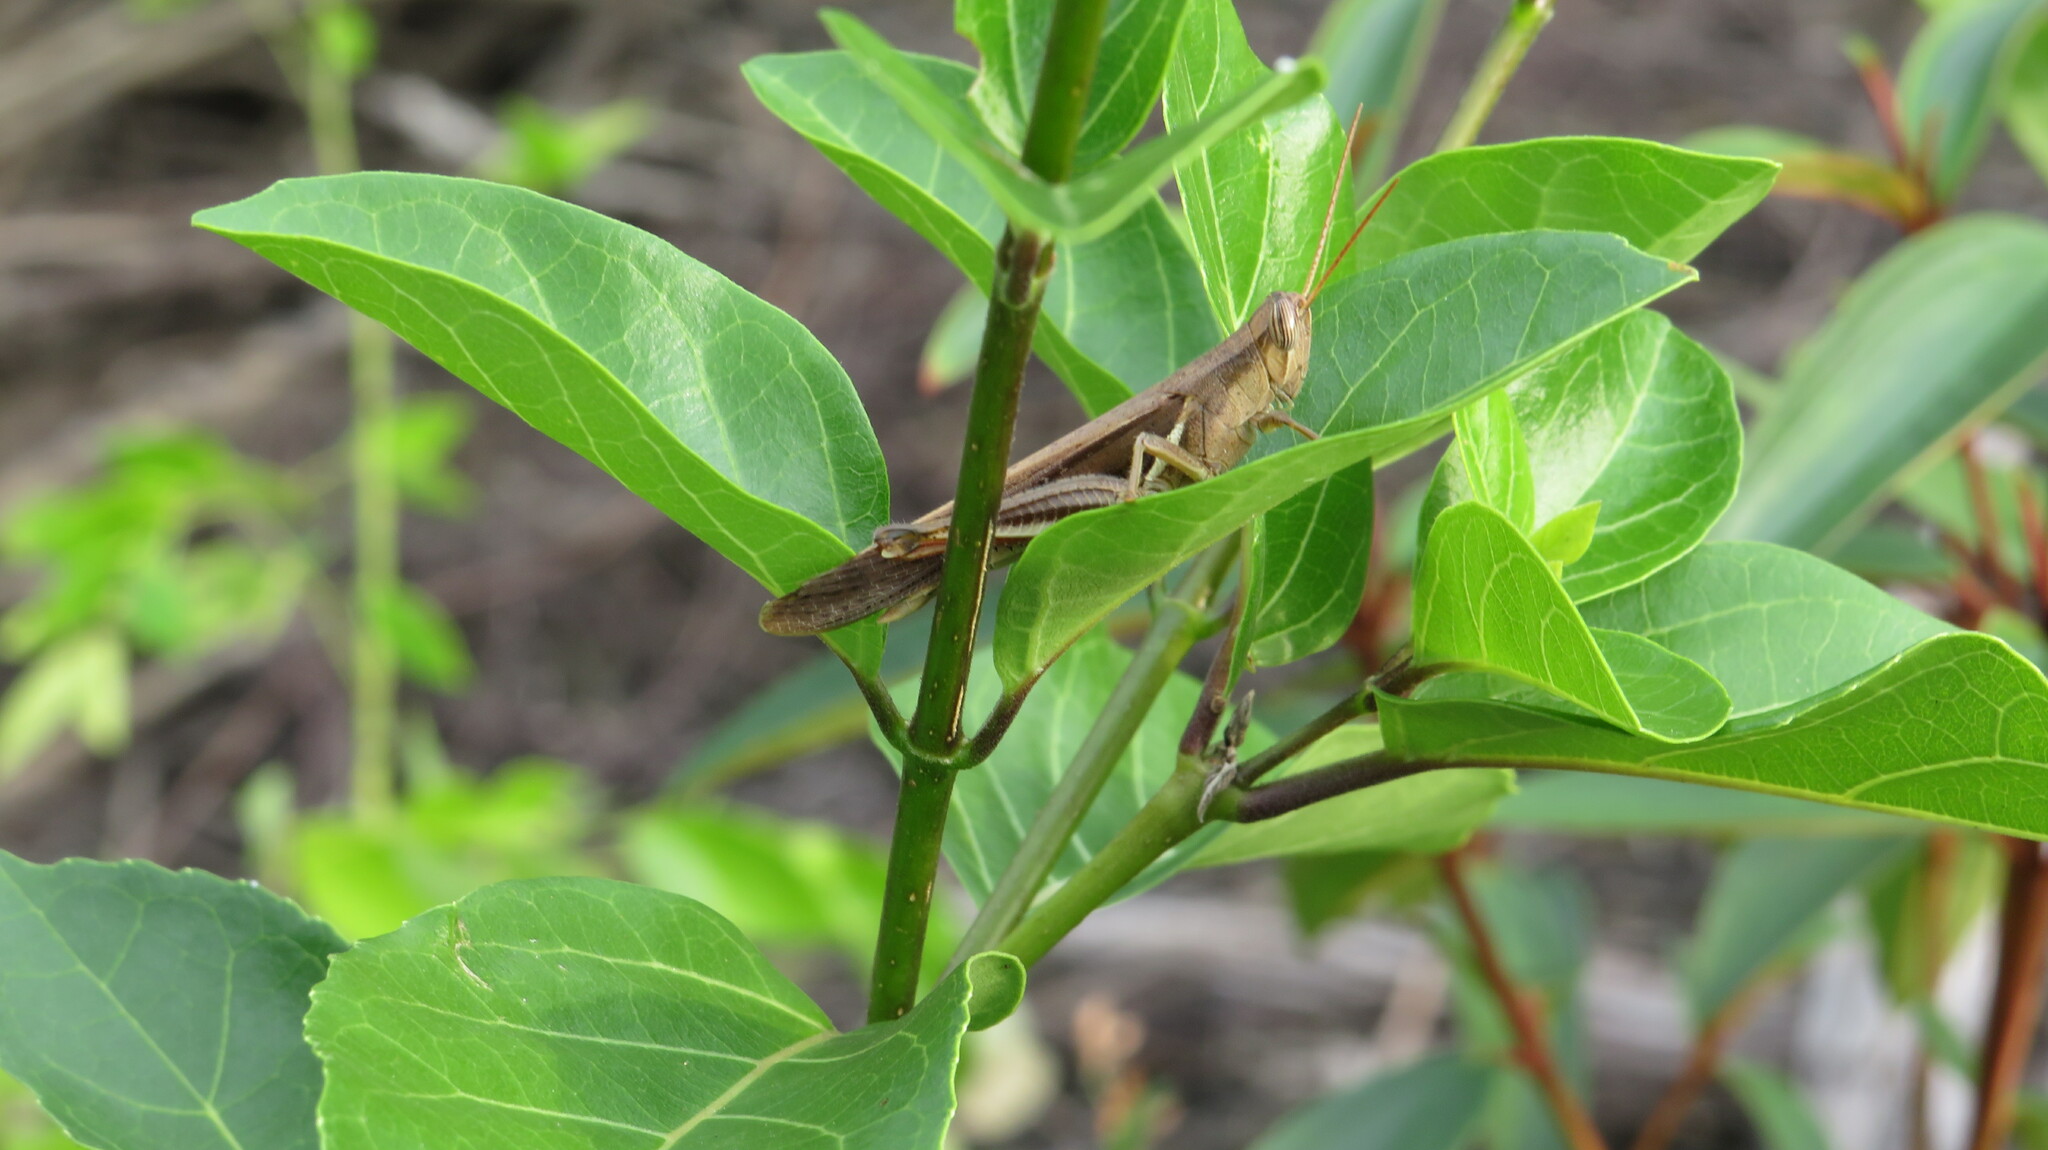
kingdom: Animalia
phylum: Arthropoda
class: Insecta
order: Orthoptera
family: Acrididae
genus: Stenocatantops
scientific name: Stenocatantops splendens
